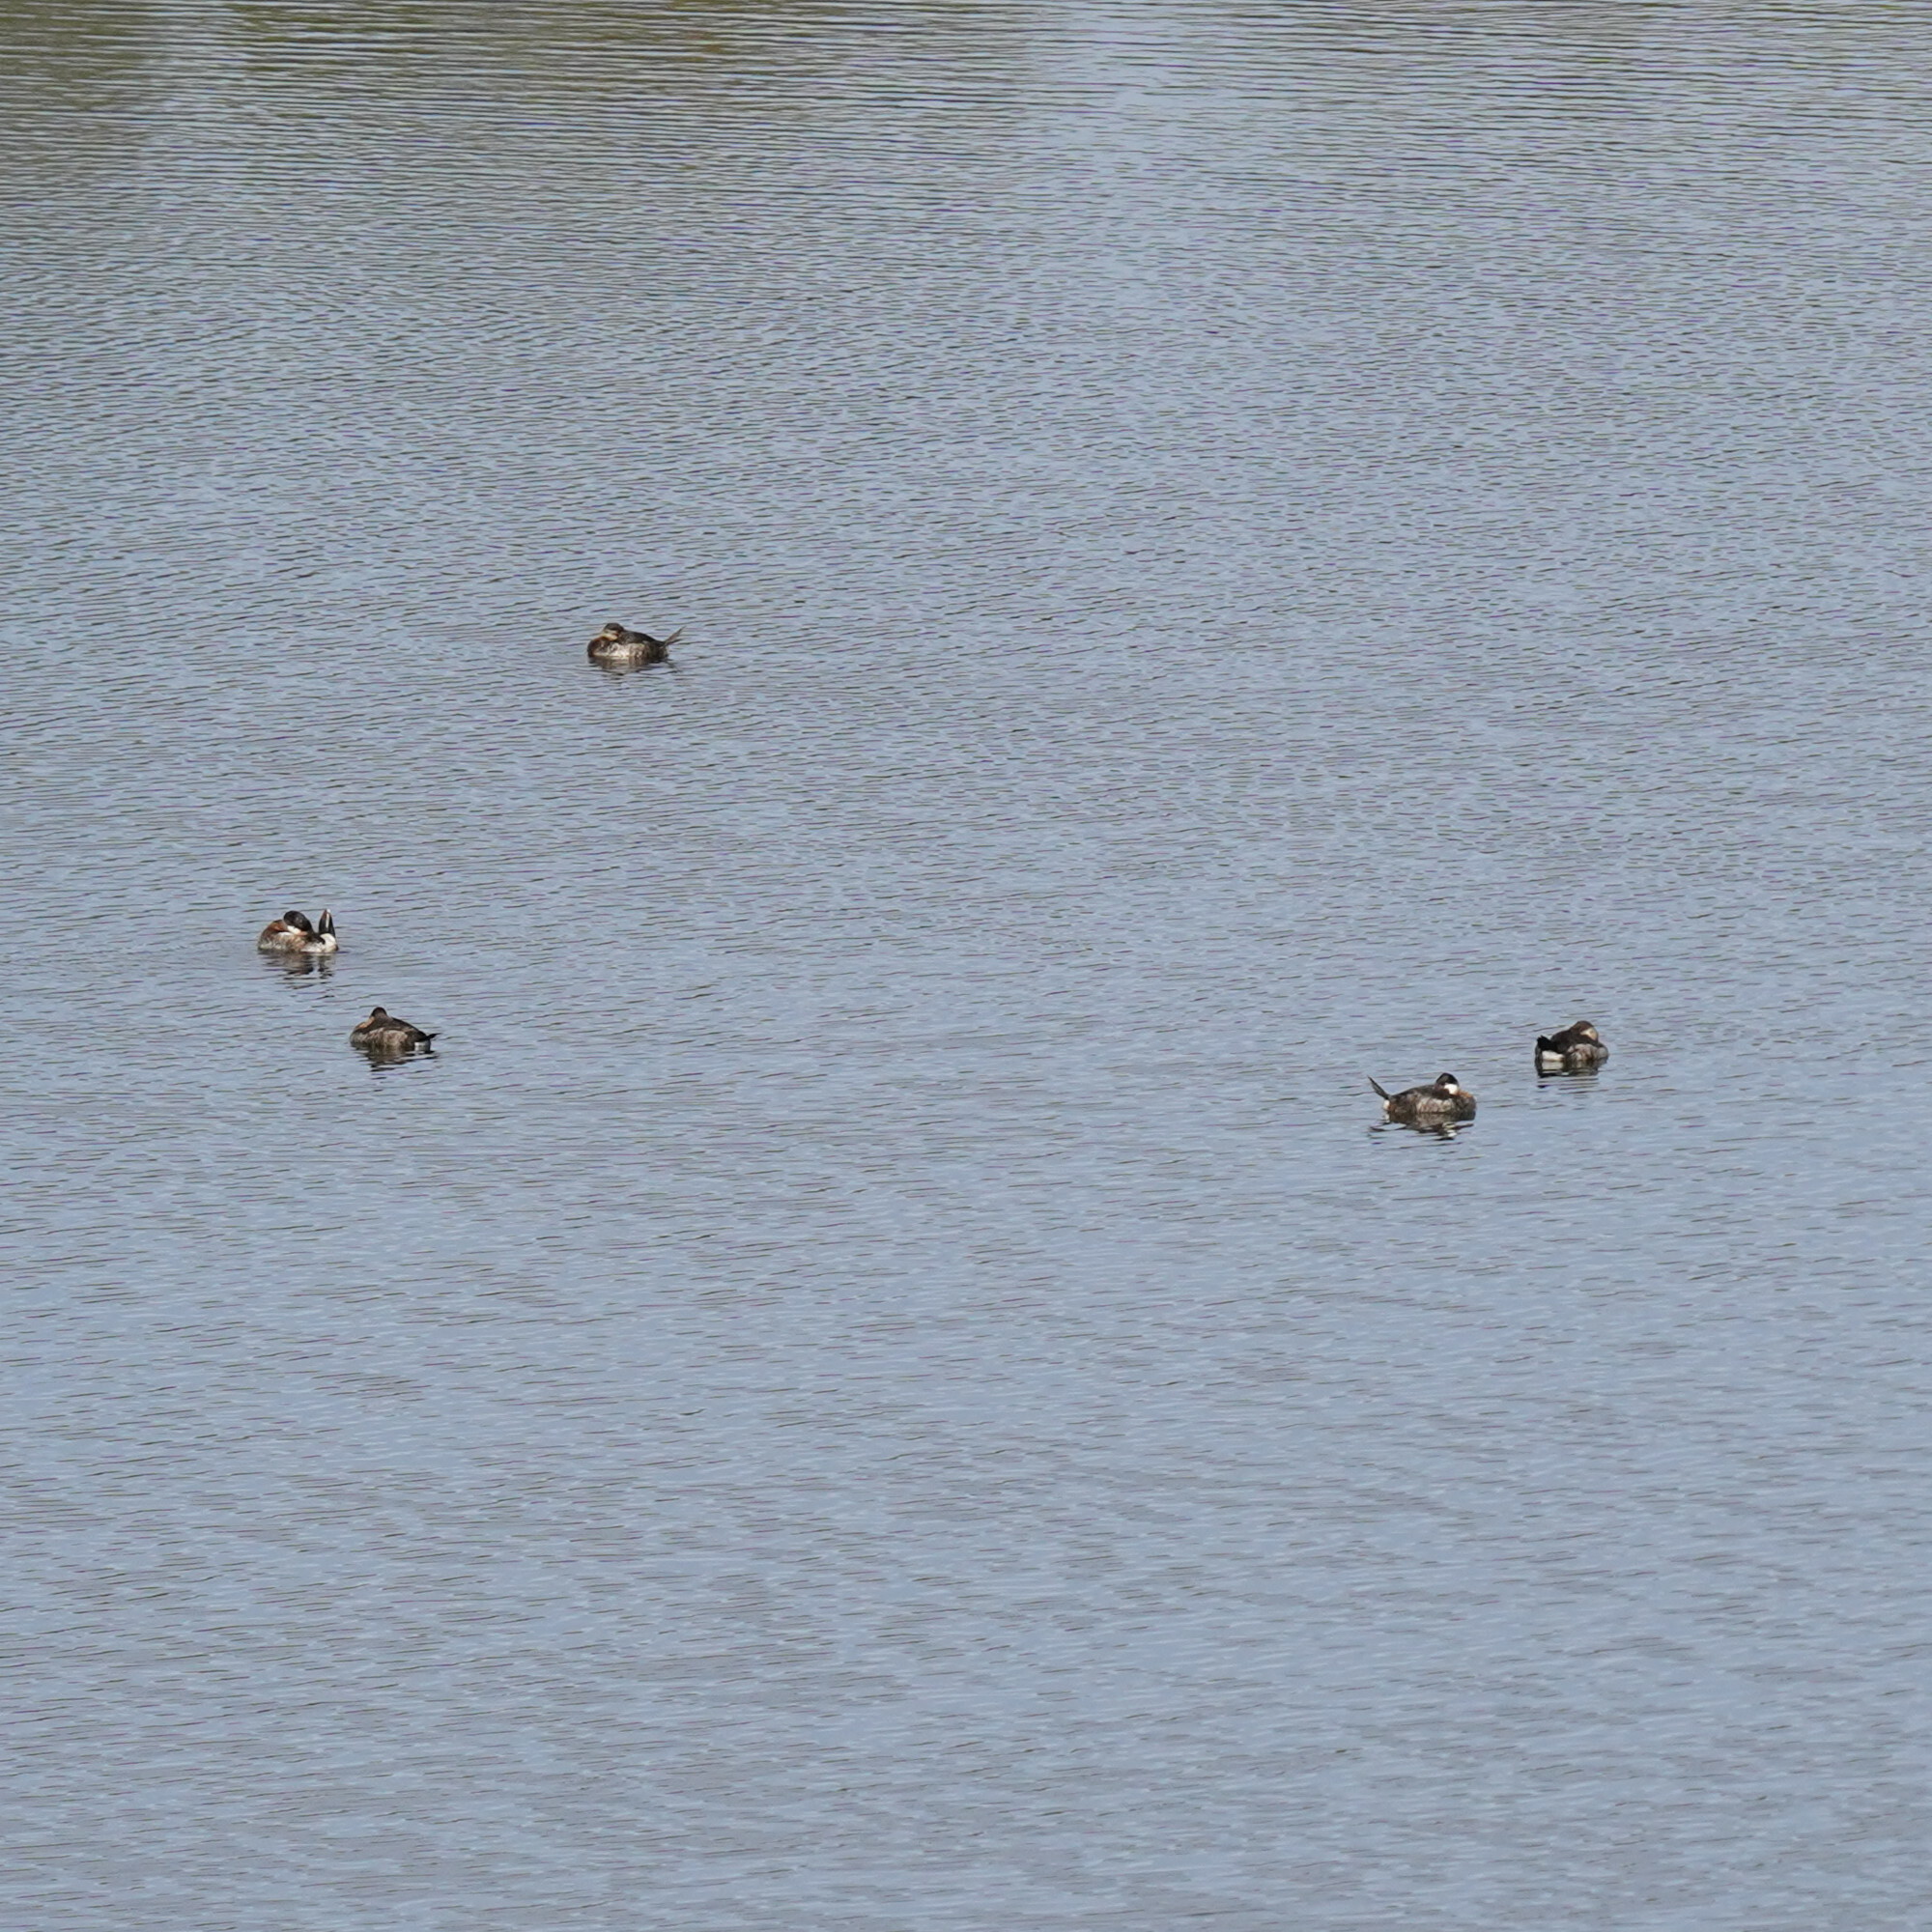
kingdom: Animalia
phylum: Chordata
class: Aves
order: Anseriformes
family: Anatidae
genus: Oxyura
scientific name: Oxyura jamaicensis
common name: Ruddy duck
